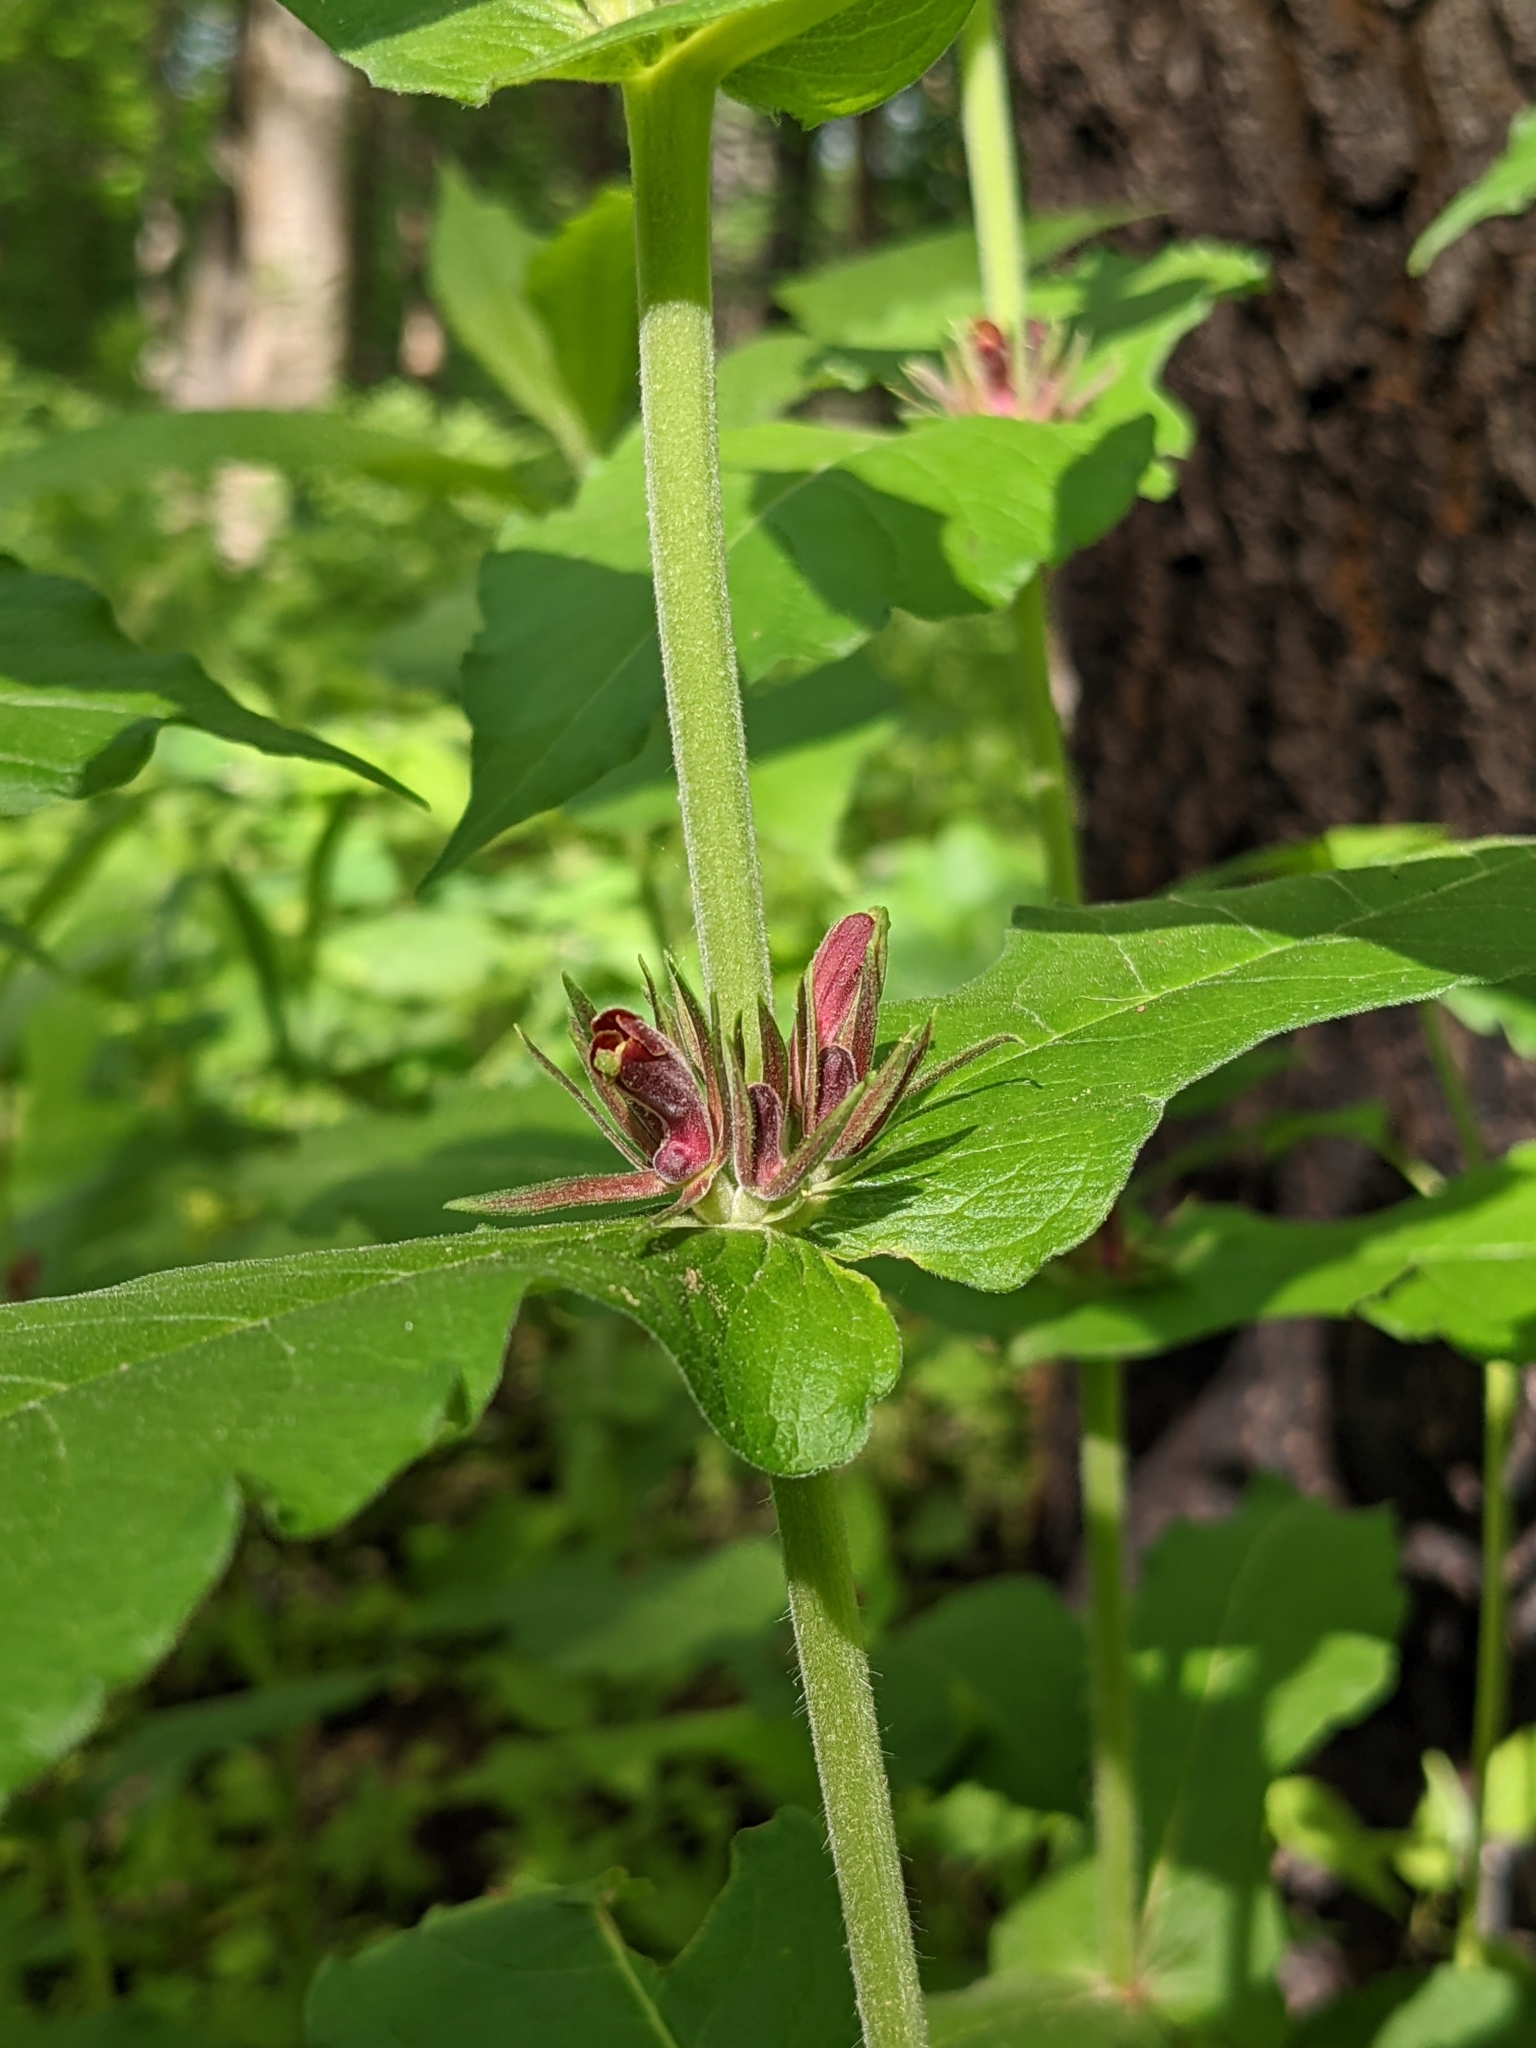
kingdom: Plantae
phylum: Tracheophyta
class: Magnoliopsida
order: Dipsacales
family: Caprifoliaceae
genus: Triosteum
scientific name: Triosteum perfoliatum
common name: Common horse-gentian
